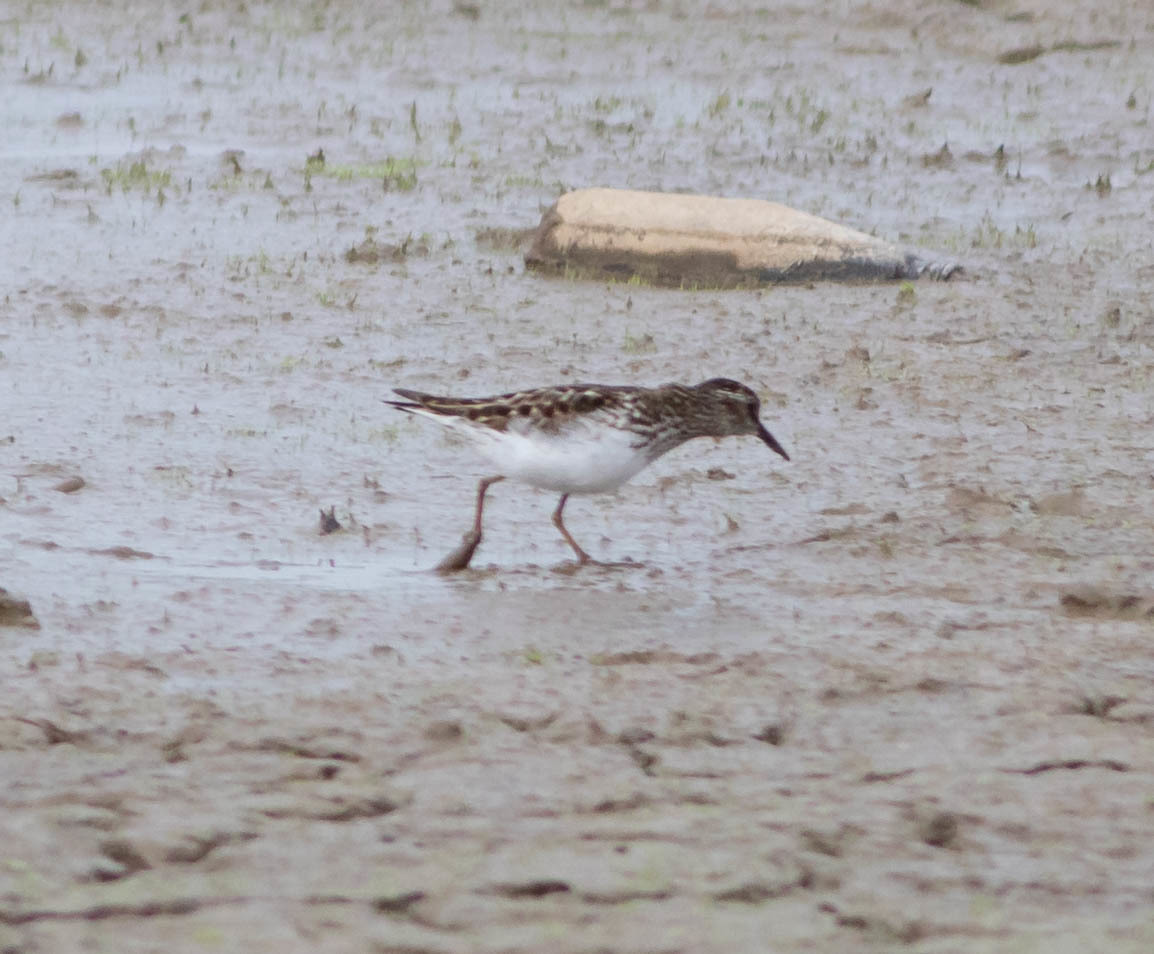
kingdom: Animalia
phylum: Chordata
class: Aves
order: Charadriiformes
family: Scolopacidae
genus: Calidris
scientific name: Calidris minutilla
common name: Least sandpiper
